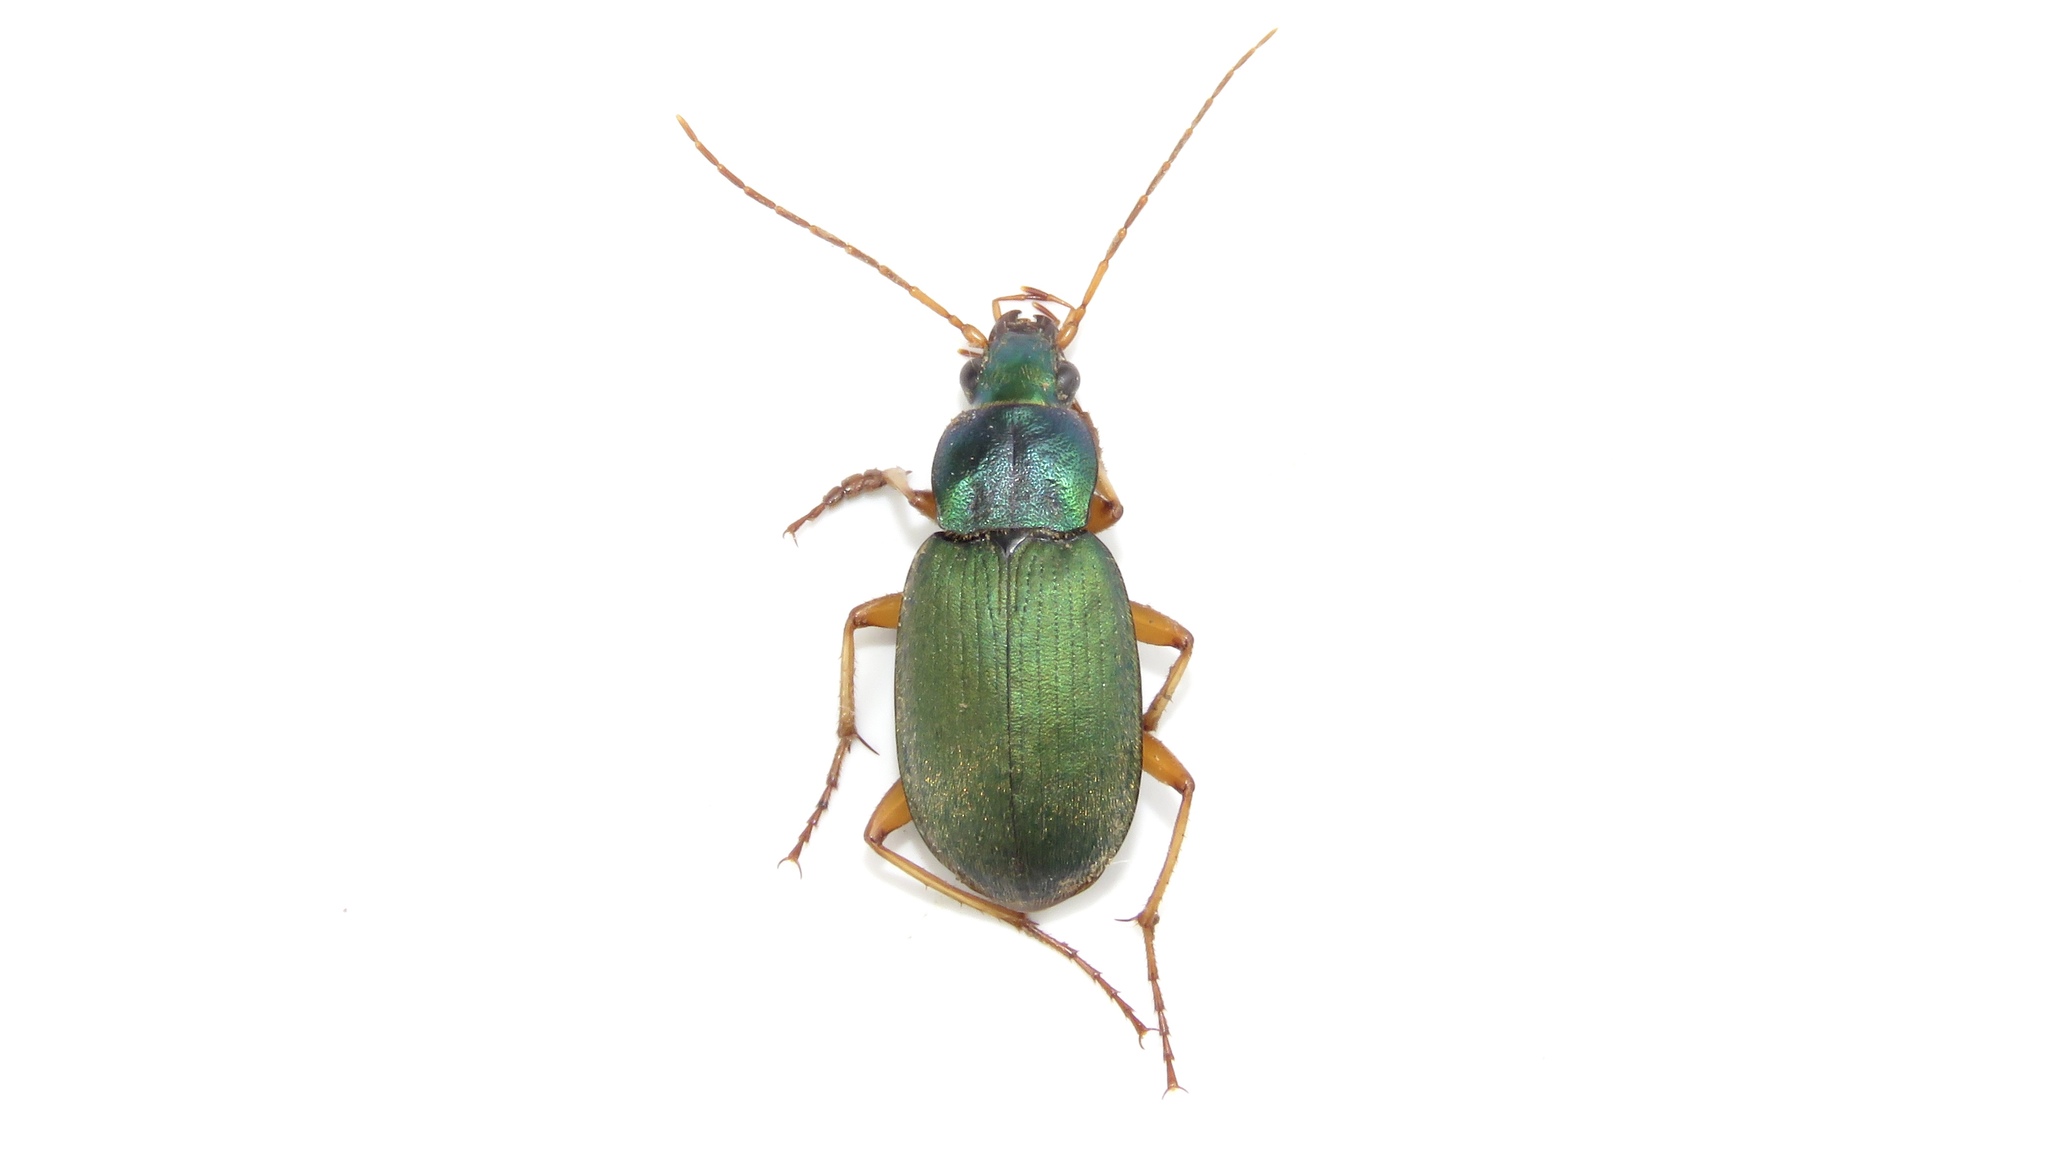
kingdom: Animalia
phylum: Arthropoda
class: Insecta
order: Coleoptera
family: Carabidae
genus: Chlaenius
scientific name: Chlaenius sericeus
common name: Green pubescent ground beetle
